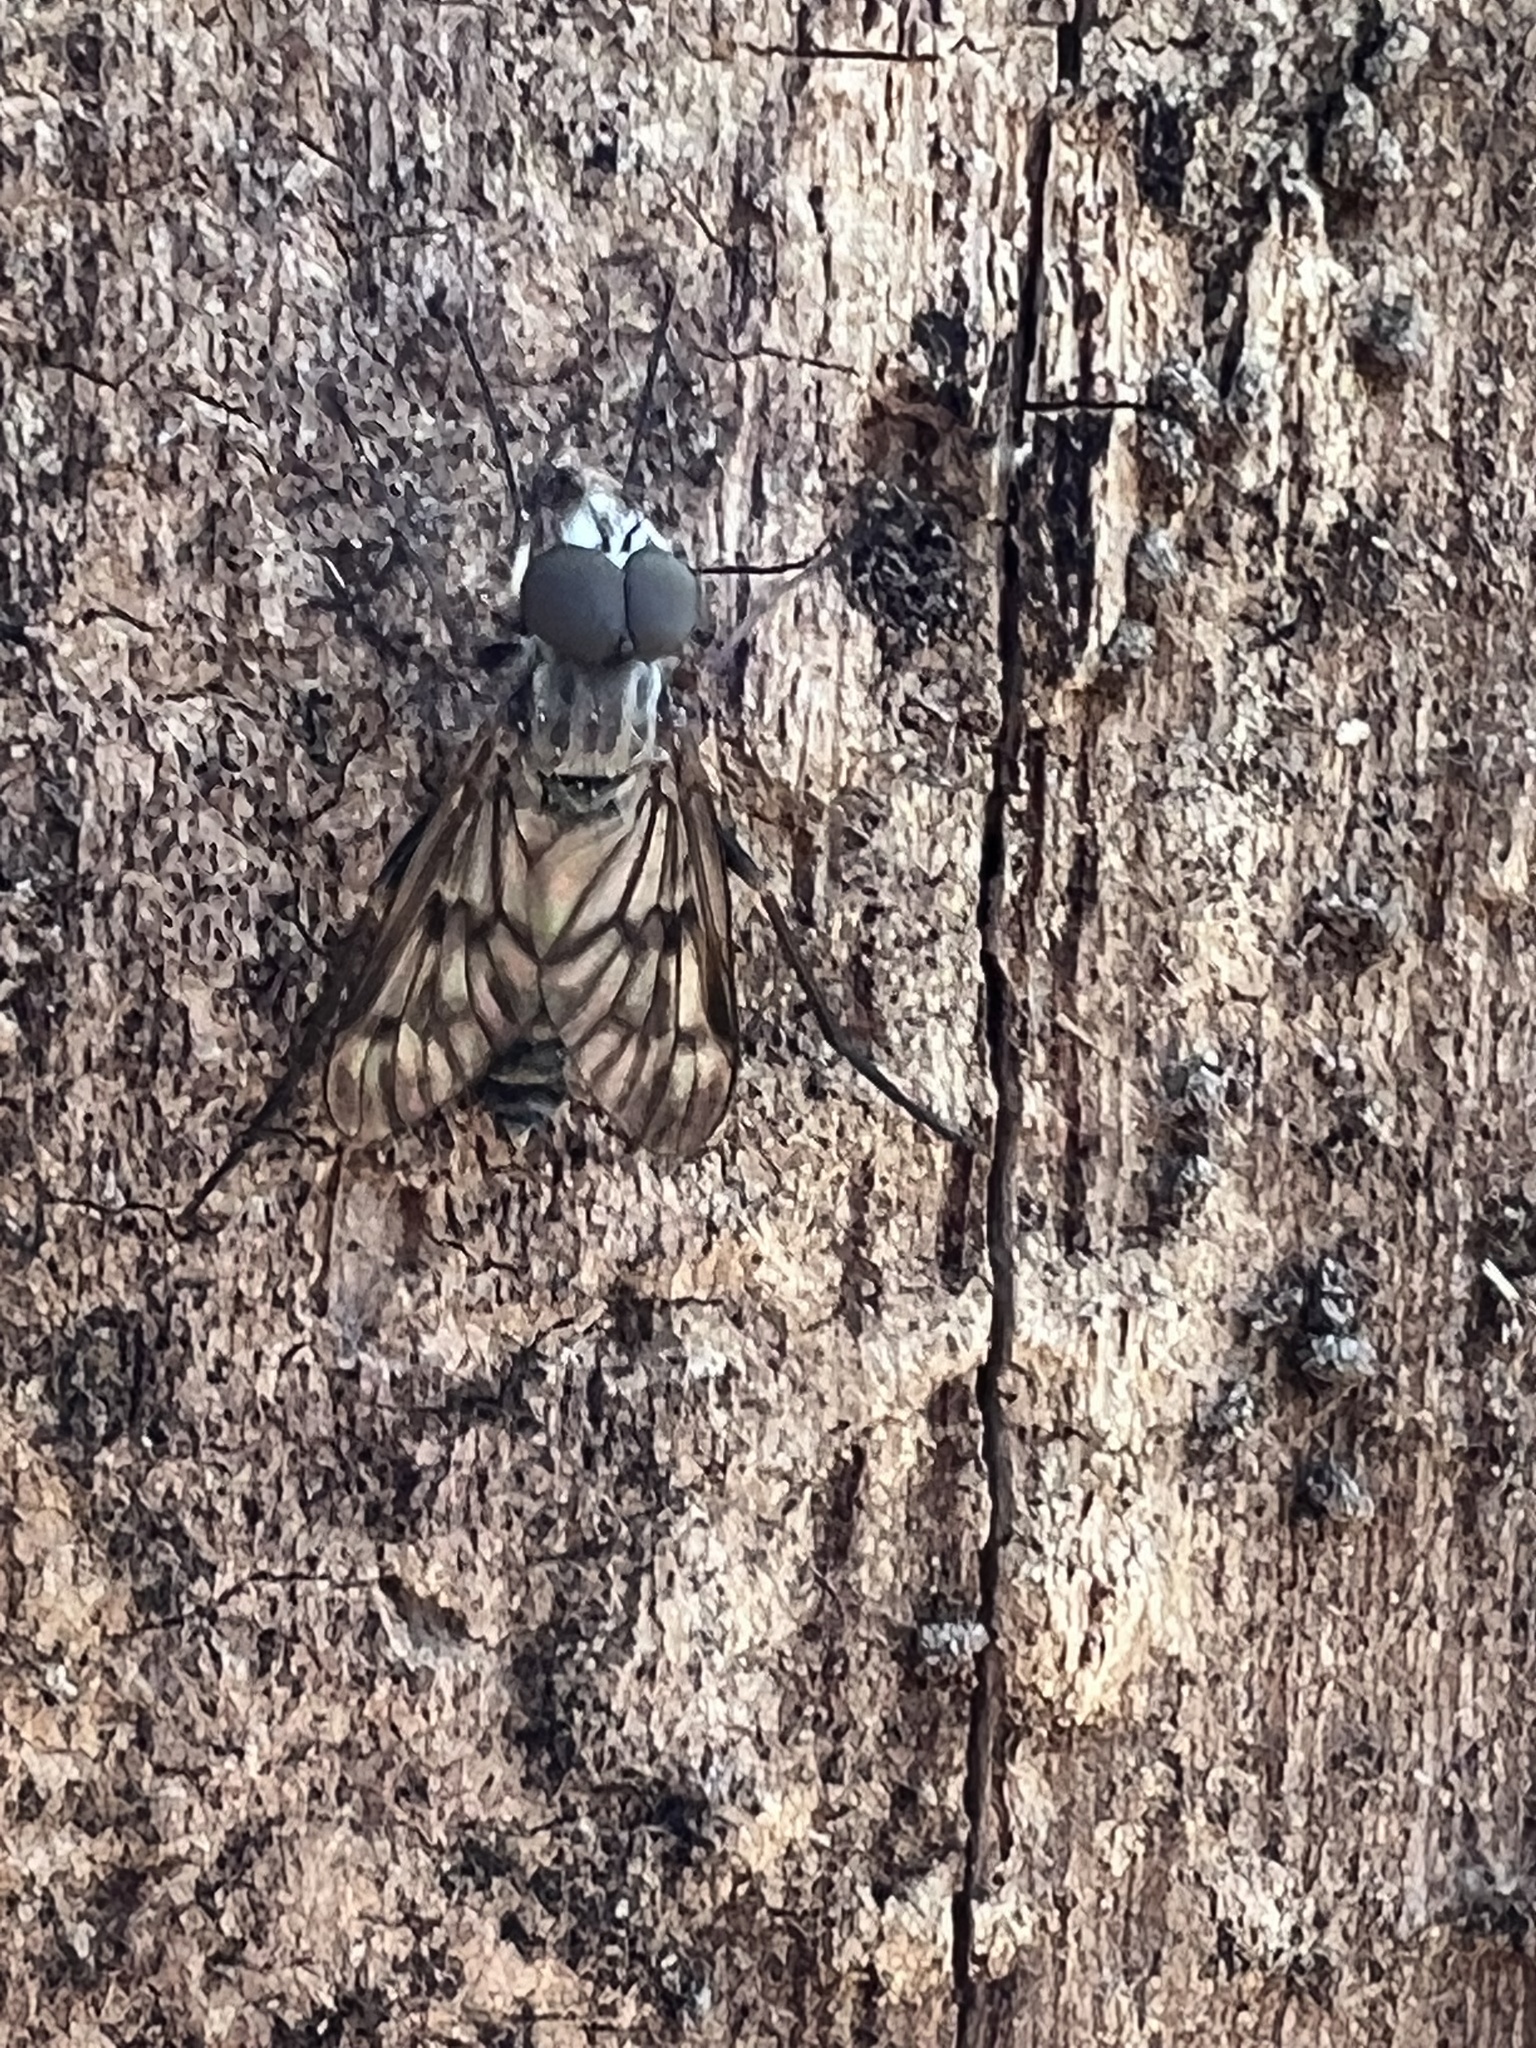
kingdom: Animalia
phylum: Arthropoda
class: Insecta
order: Diptera
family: Rhagionidae
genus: Rhagio
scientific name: Rhagio mystaceus
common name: Common snipe fly
